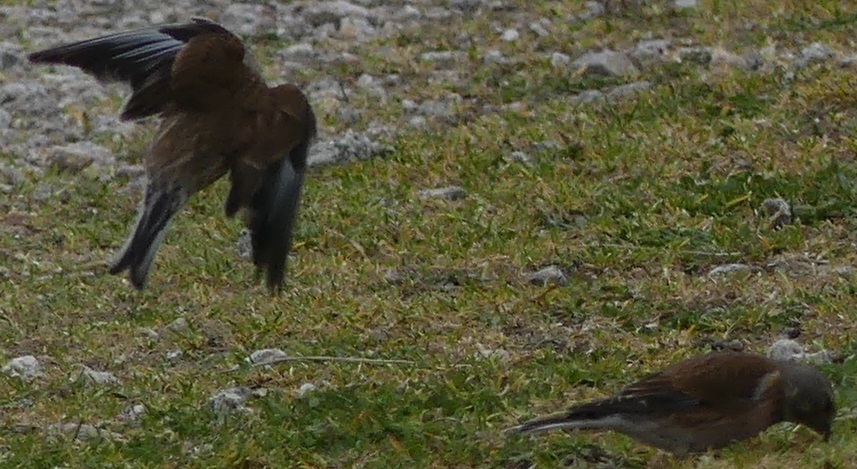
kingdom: Animalia
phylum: Chordata
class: Aves
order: Passeriformes
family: Fringillidae
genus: Linaria
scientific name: Linaria cannabina
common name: Common linnet
